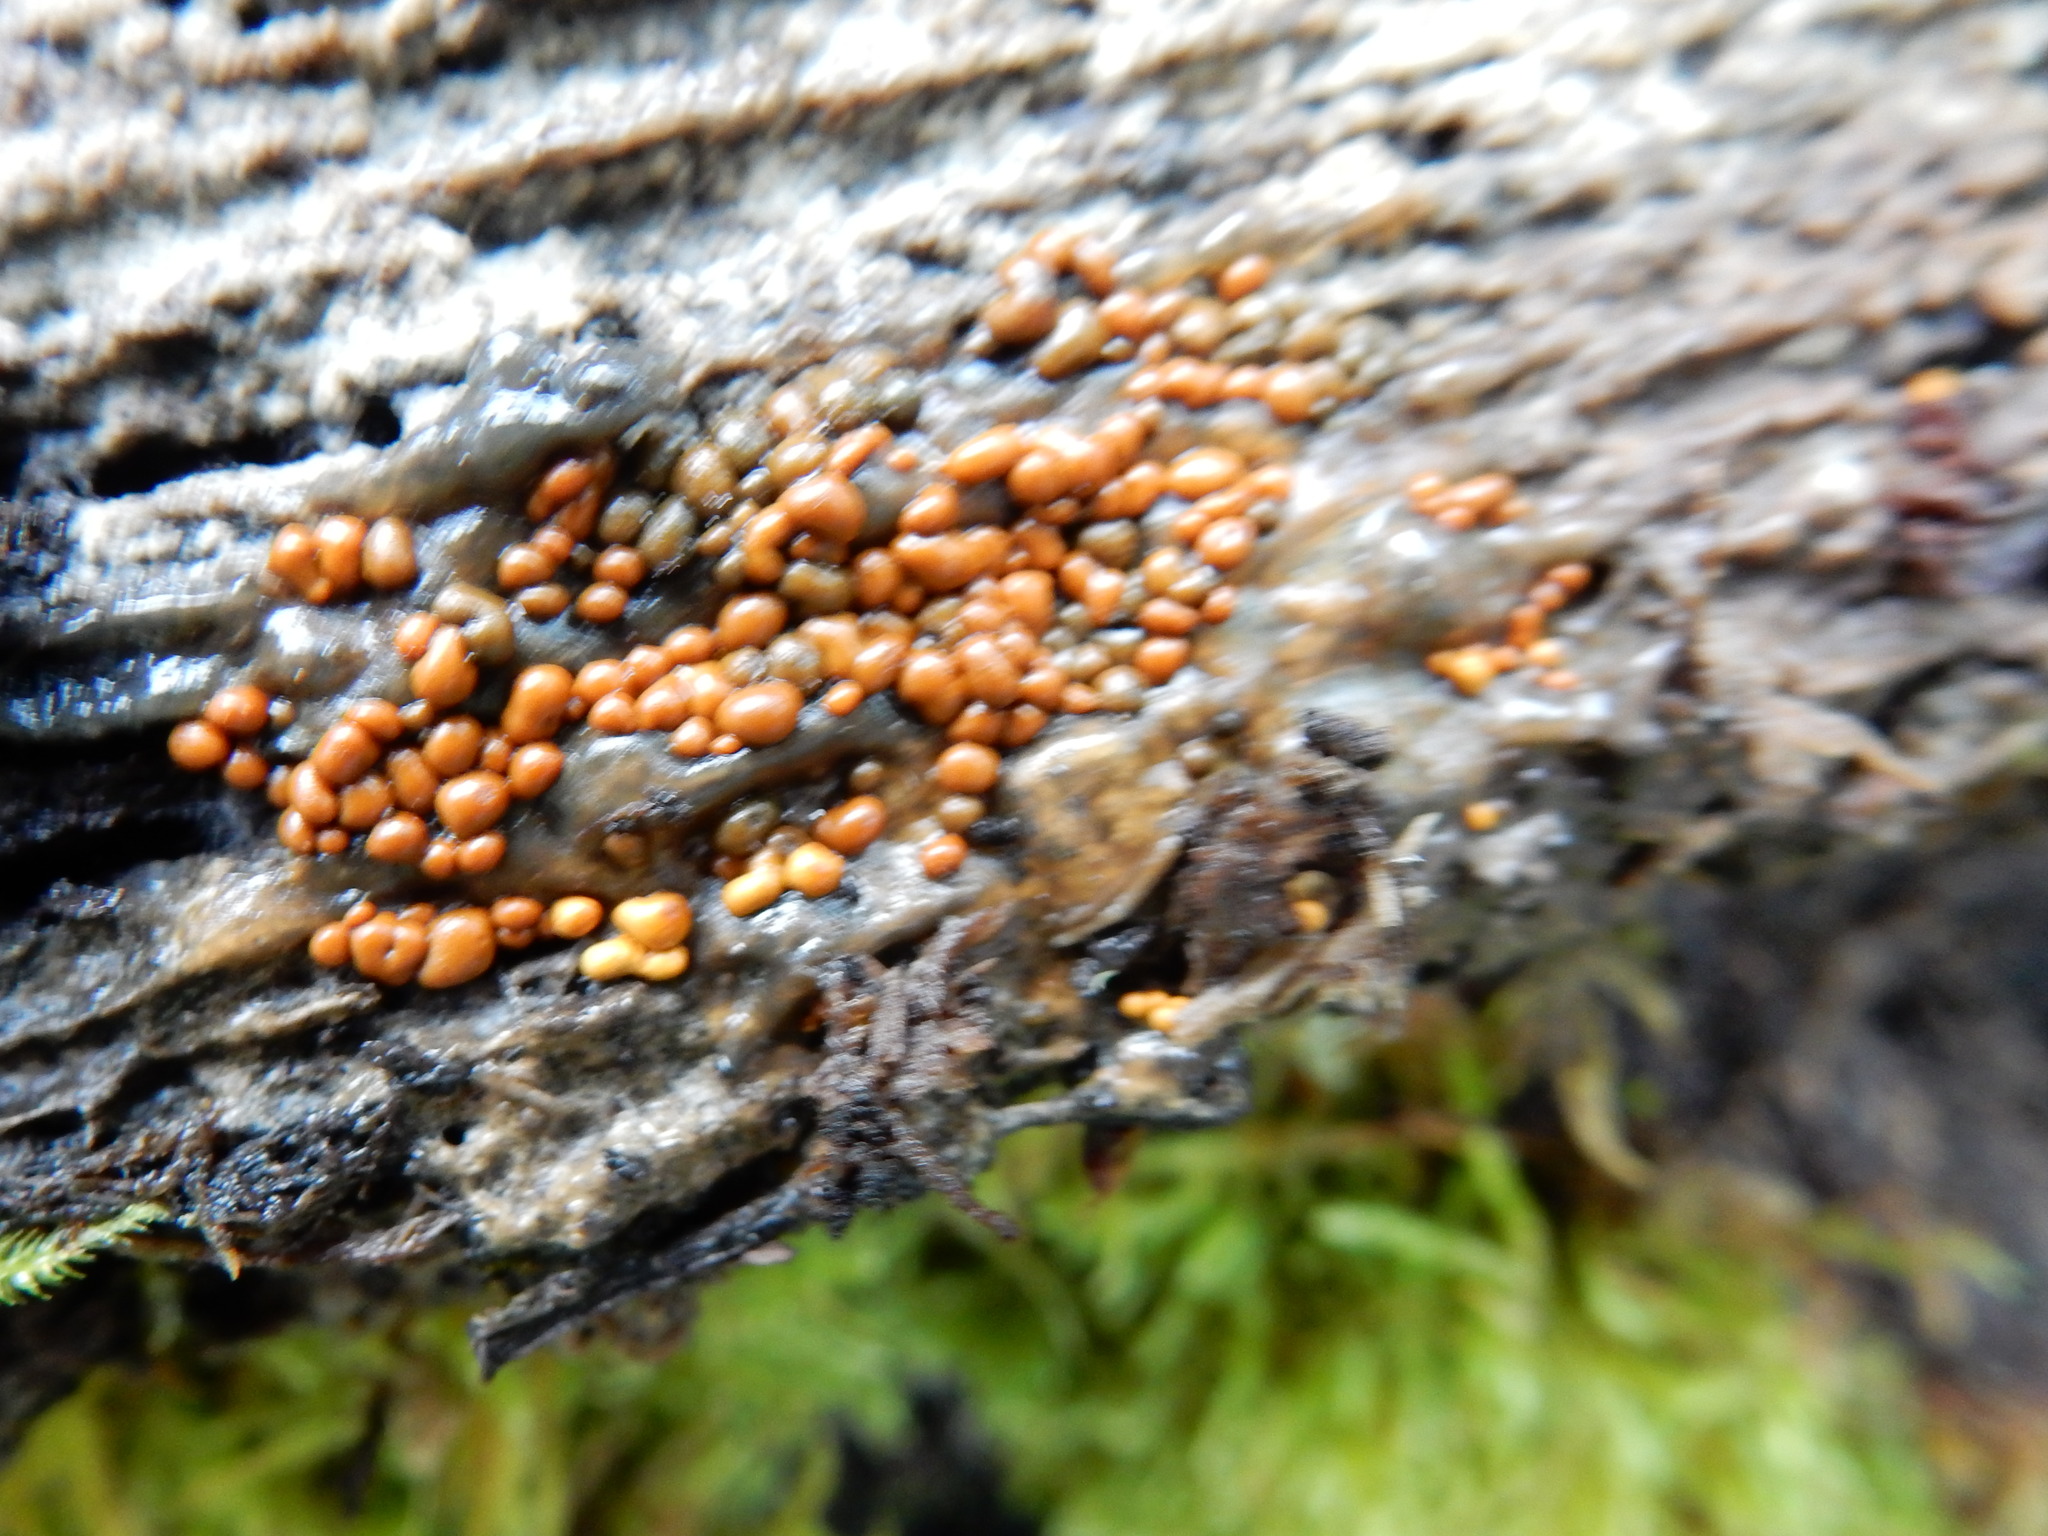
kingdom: Protozoa
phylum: Mycetozoa
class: Myxomycetes
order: Cribrariales
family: Tubiferaceae
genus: Lycogala
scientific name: Lycogala epidendrum
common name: Wolf's milk
